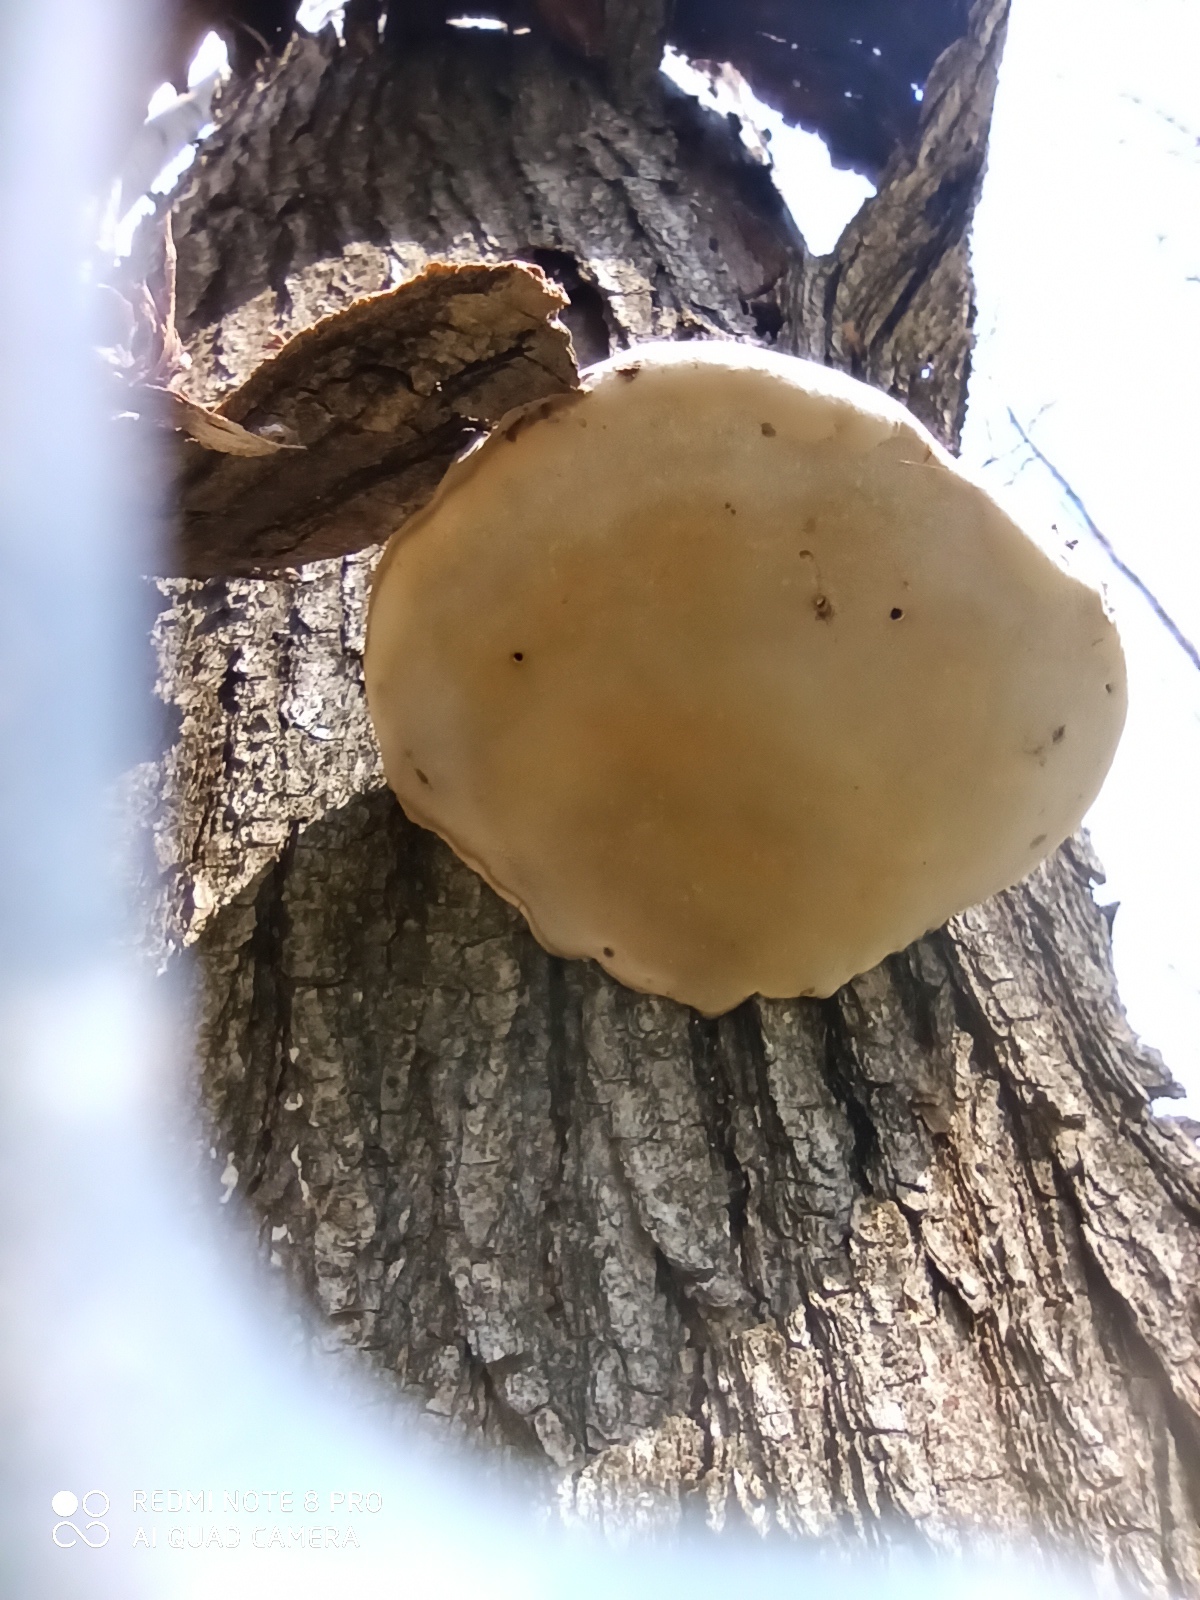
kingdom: Fungi
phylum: Basidiomycota
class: Agaricomycetes
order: Polyporales
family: Polyporaceae
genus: Fomes
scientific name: Fomes fomentarius
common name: Hoof fungus
